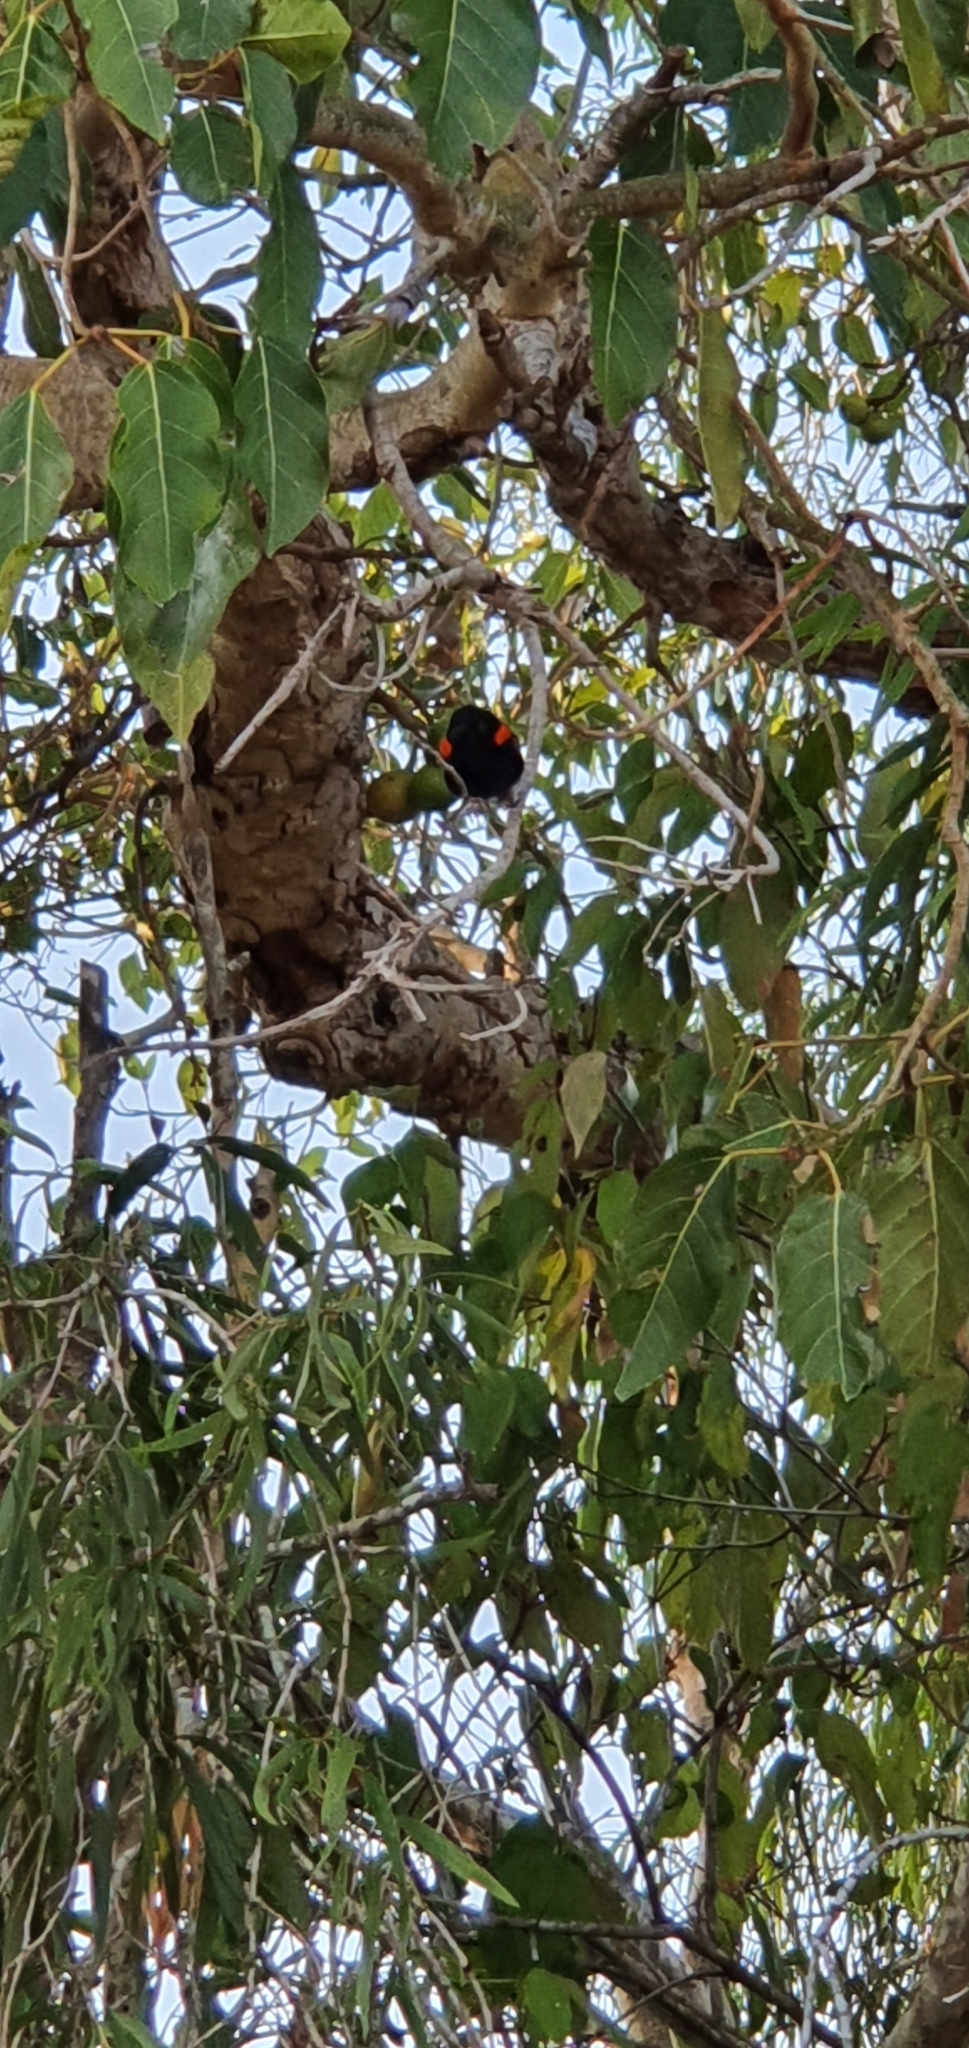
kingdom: Animalia
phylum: Chordata
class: Aves
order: Passeriformes
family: Maluridae
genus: Malurus
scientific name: Malurus melanocephalus
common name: Red-backed fairywren
